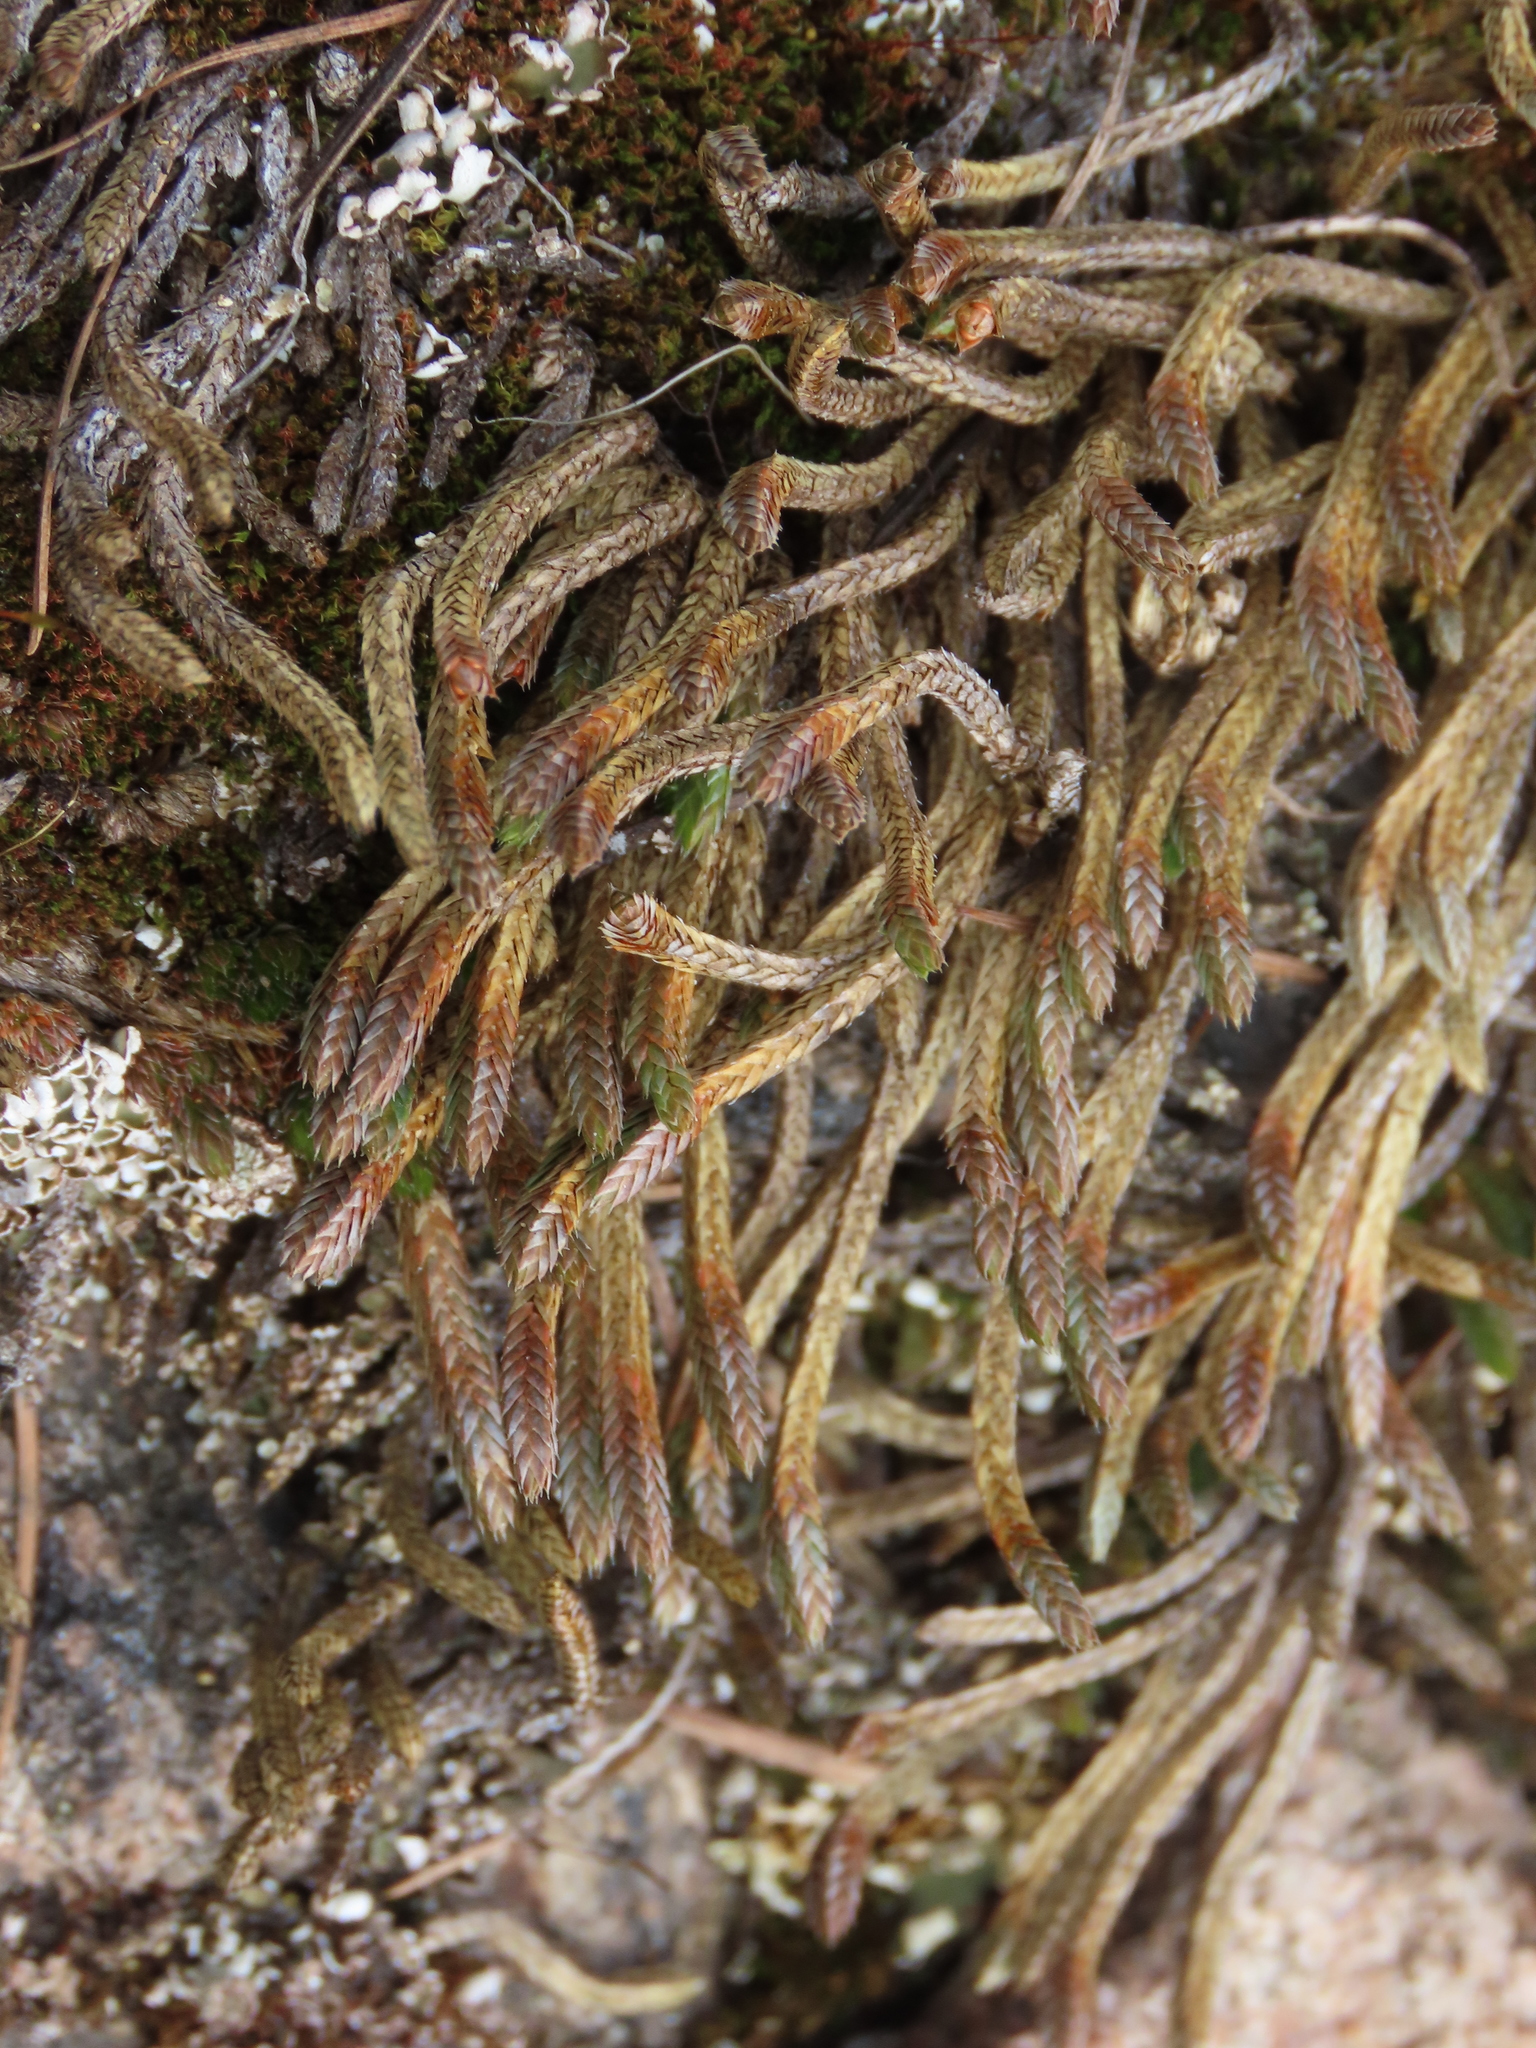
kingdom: Plantae
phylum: Tracheophyta
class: Lycopodiopsida
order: Selaginellales
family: Selaginellaceae
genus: Selaginella
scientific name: Selaginella densa
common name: Mountain spike-moss
